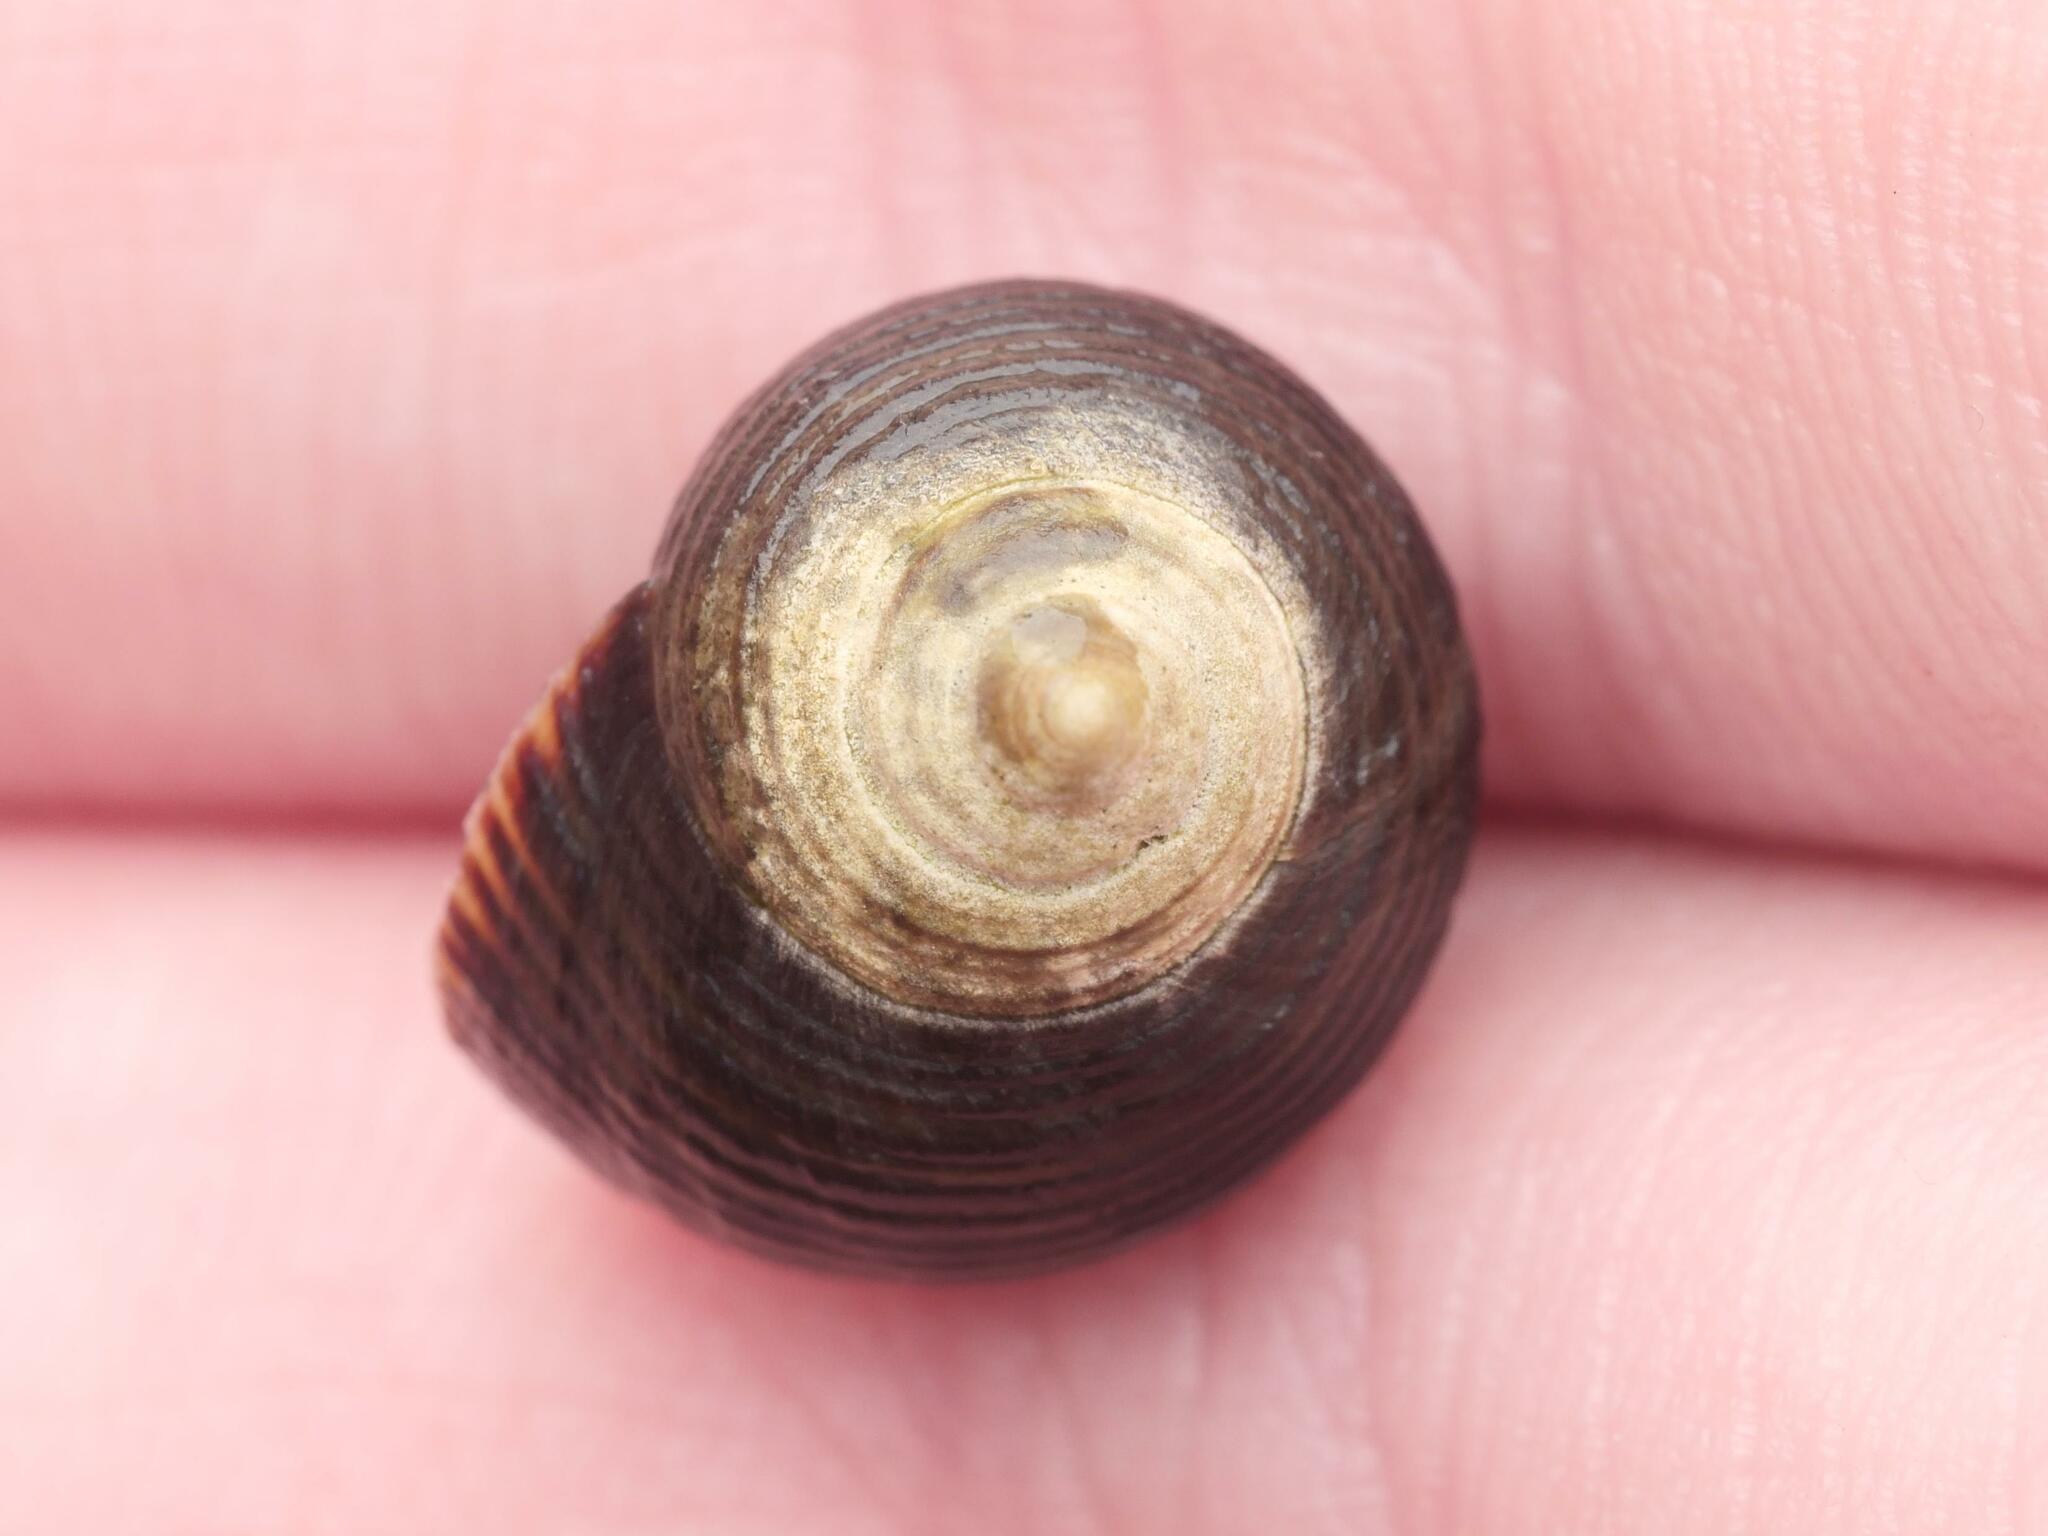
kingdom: Animalia
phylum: Mollusca
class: Gastropoda
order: Littorinimorpha
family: Littorinidae
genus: Littorina
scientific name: Littorina littorea
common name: Common periwinkle
